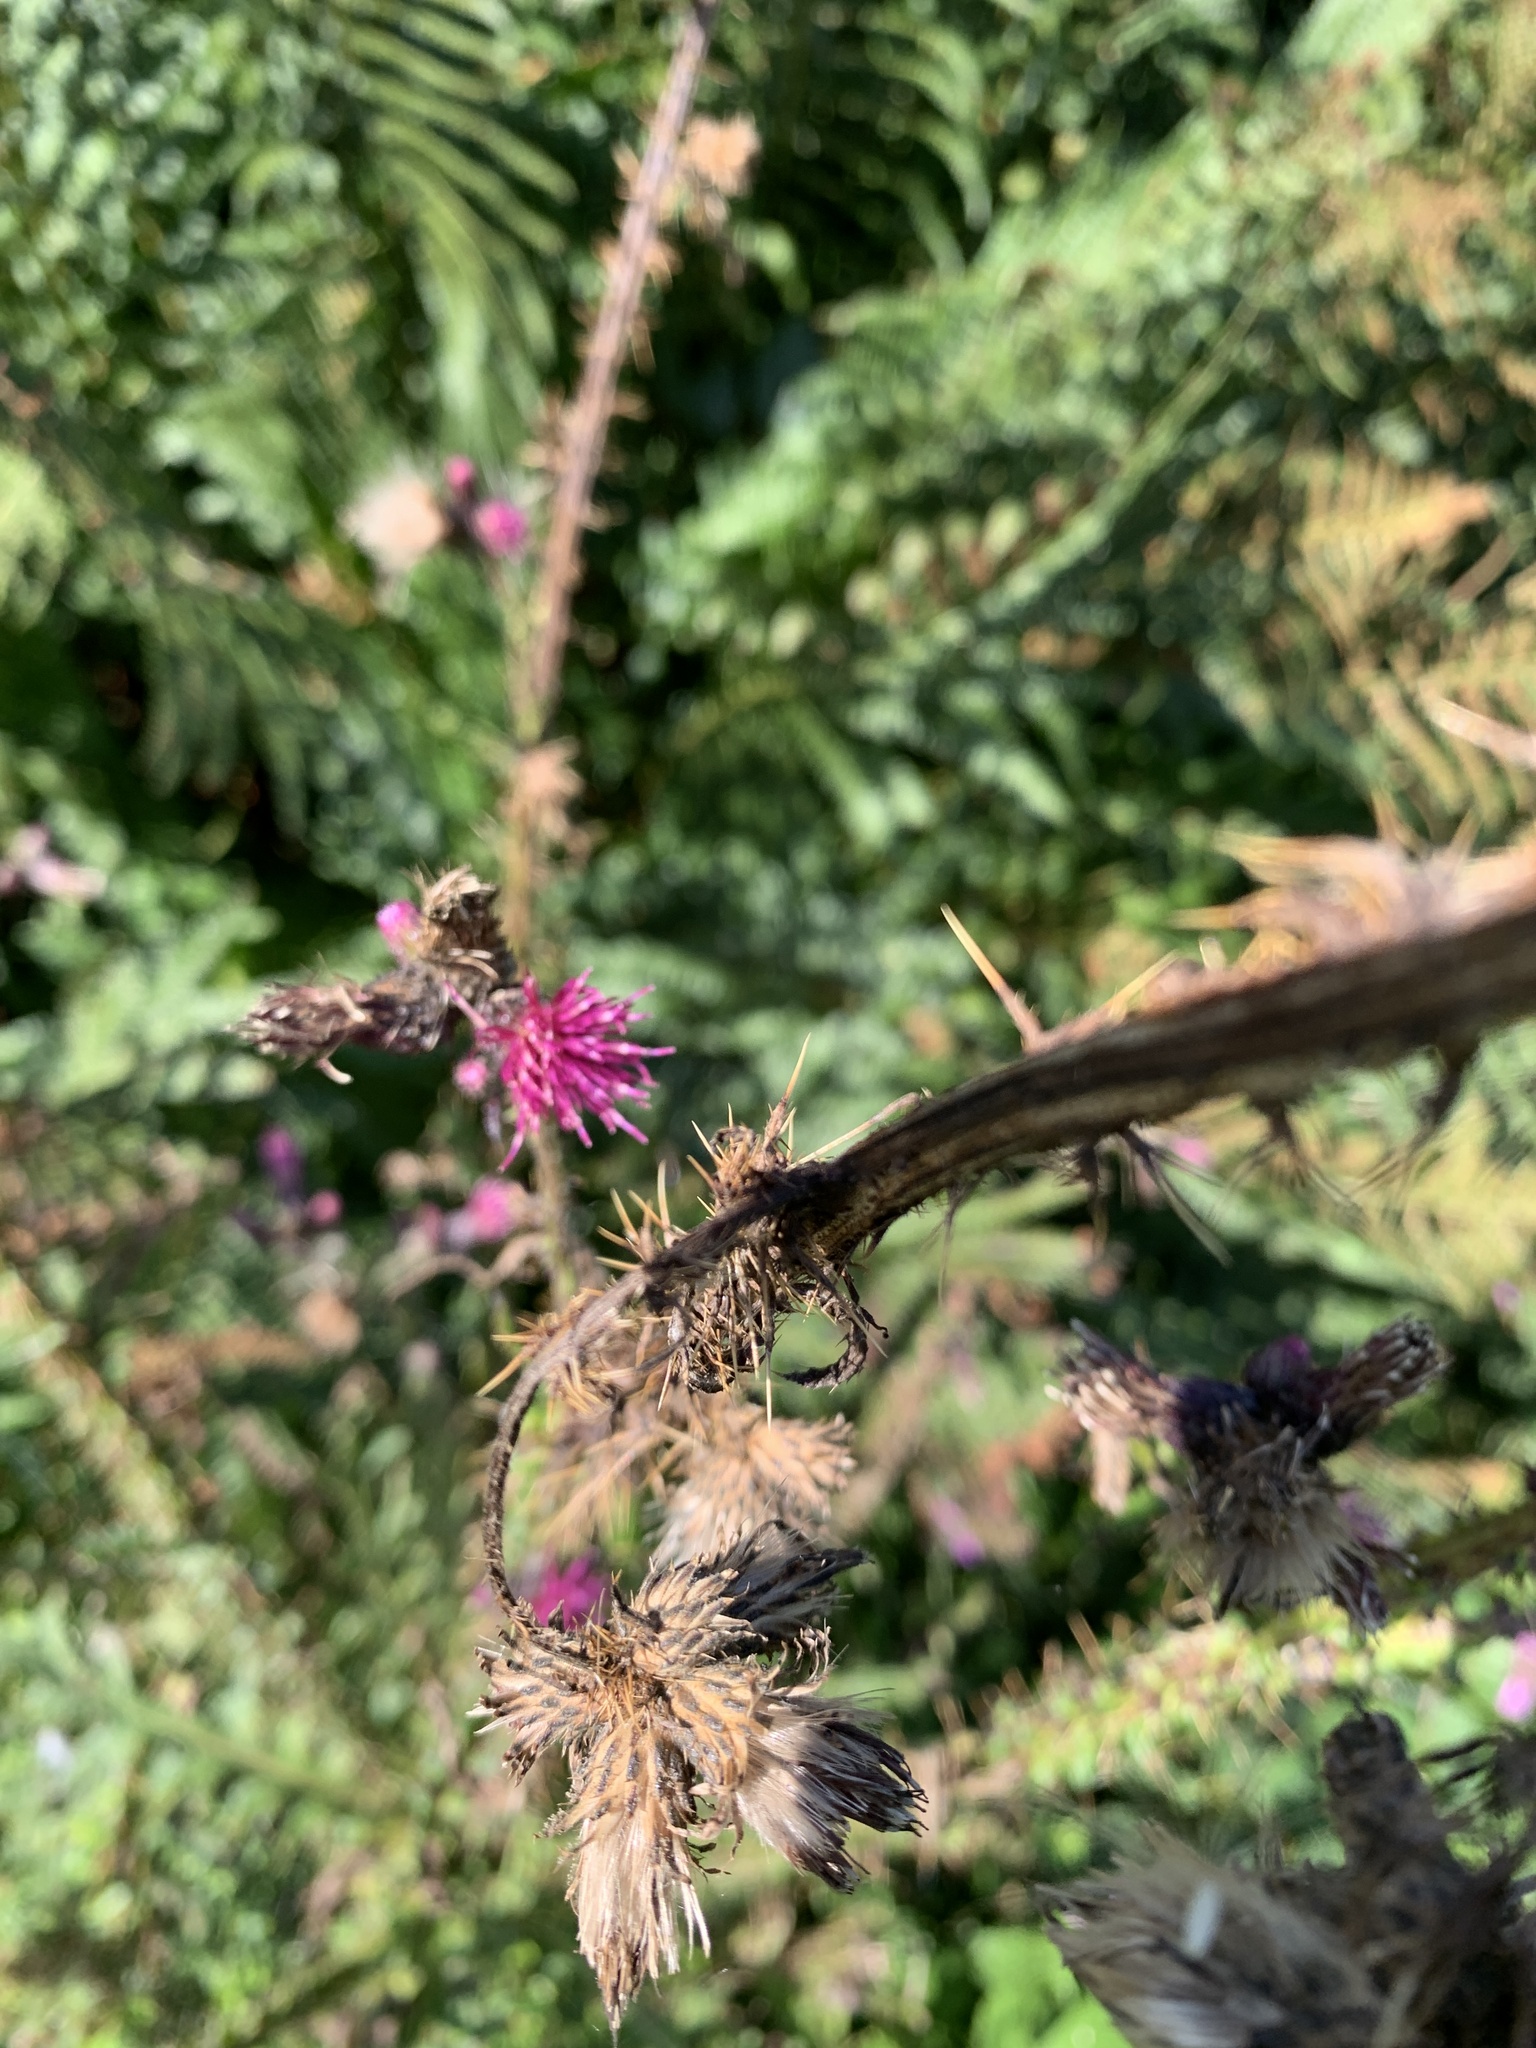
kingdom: Plantae
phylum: Tracheophyta
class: Magnoliopsida
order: Asterales
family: Asteraceae
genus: Cirsium
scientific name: Cirsium palustre
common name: Marsh thistle
